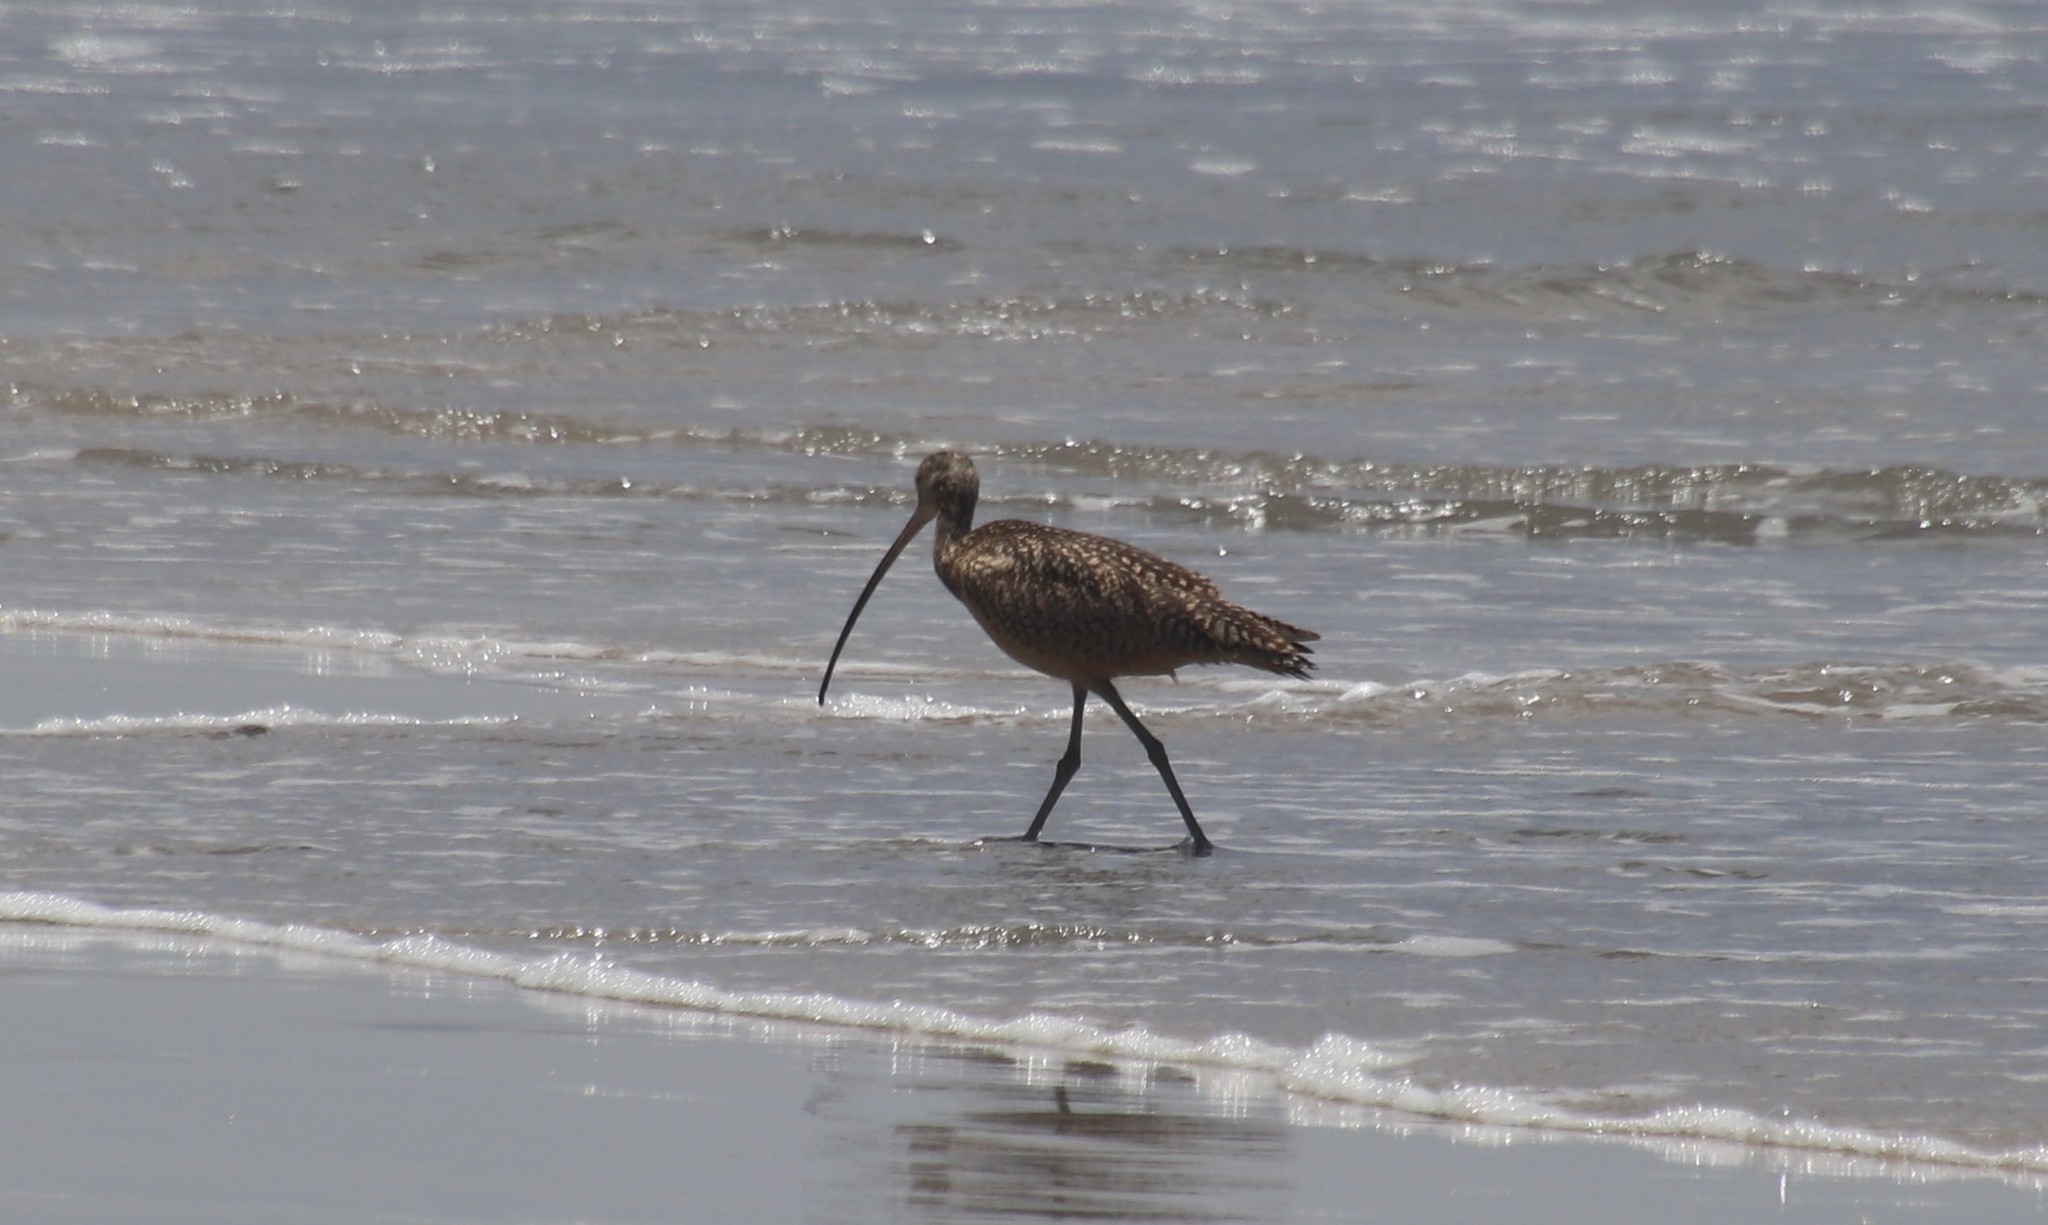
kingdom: Animalia
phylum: Chordata
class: Aves
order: Charadriiformes
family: Scolopacidae
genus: Numenius
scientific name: Numenius americanus
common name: Long-billed curlew
